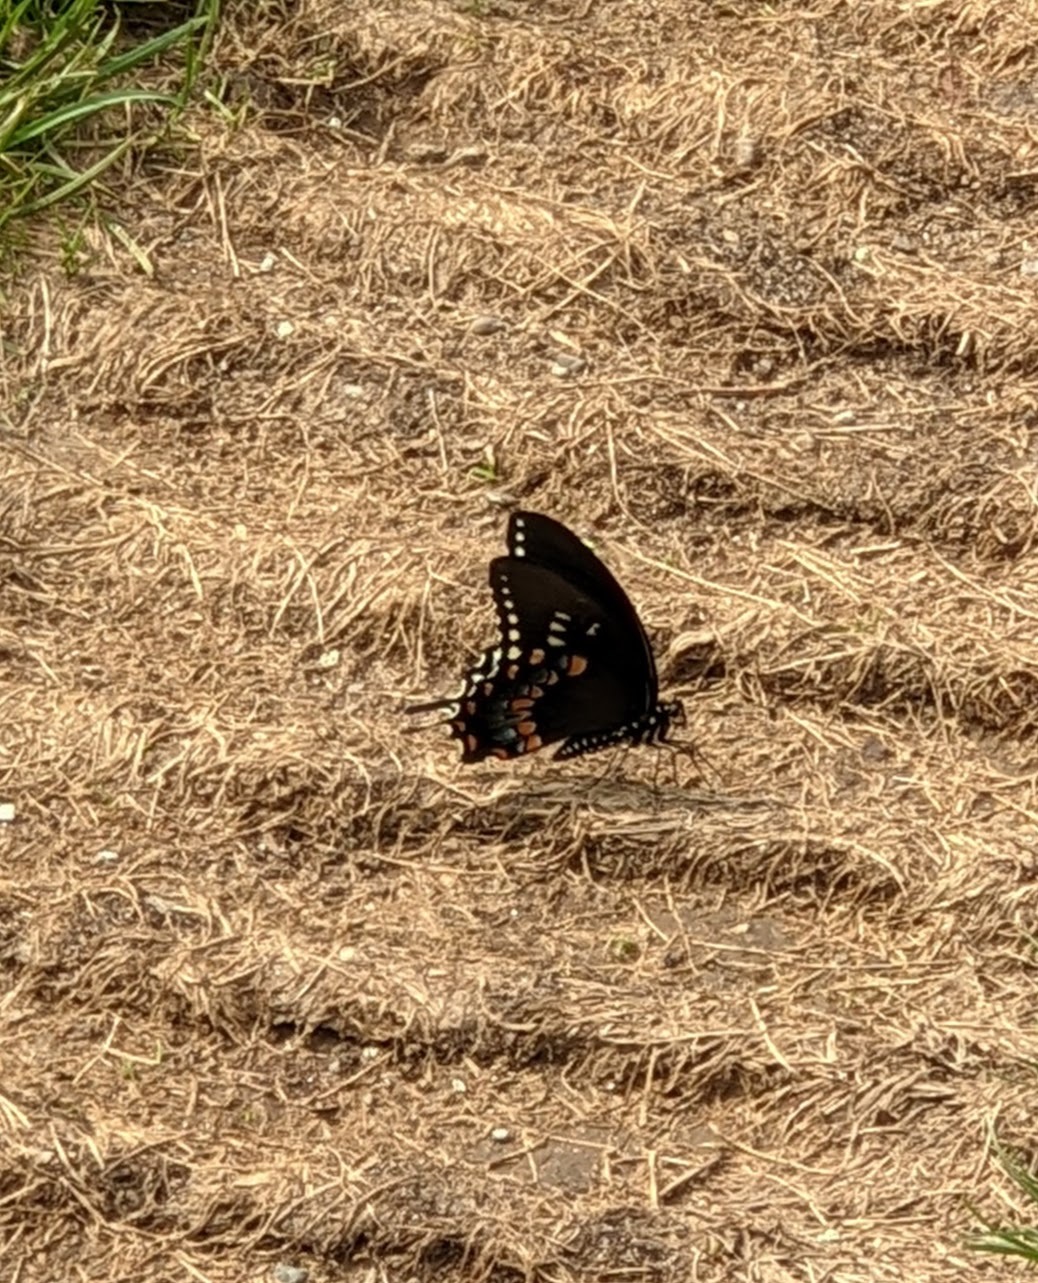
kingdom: Animalia
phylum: Arthropoda
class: Insecta
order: Lepidoptera
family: Papilionidae
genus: Papilio
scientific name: Papilio troilus
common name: Spicebush swallowtail
